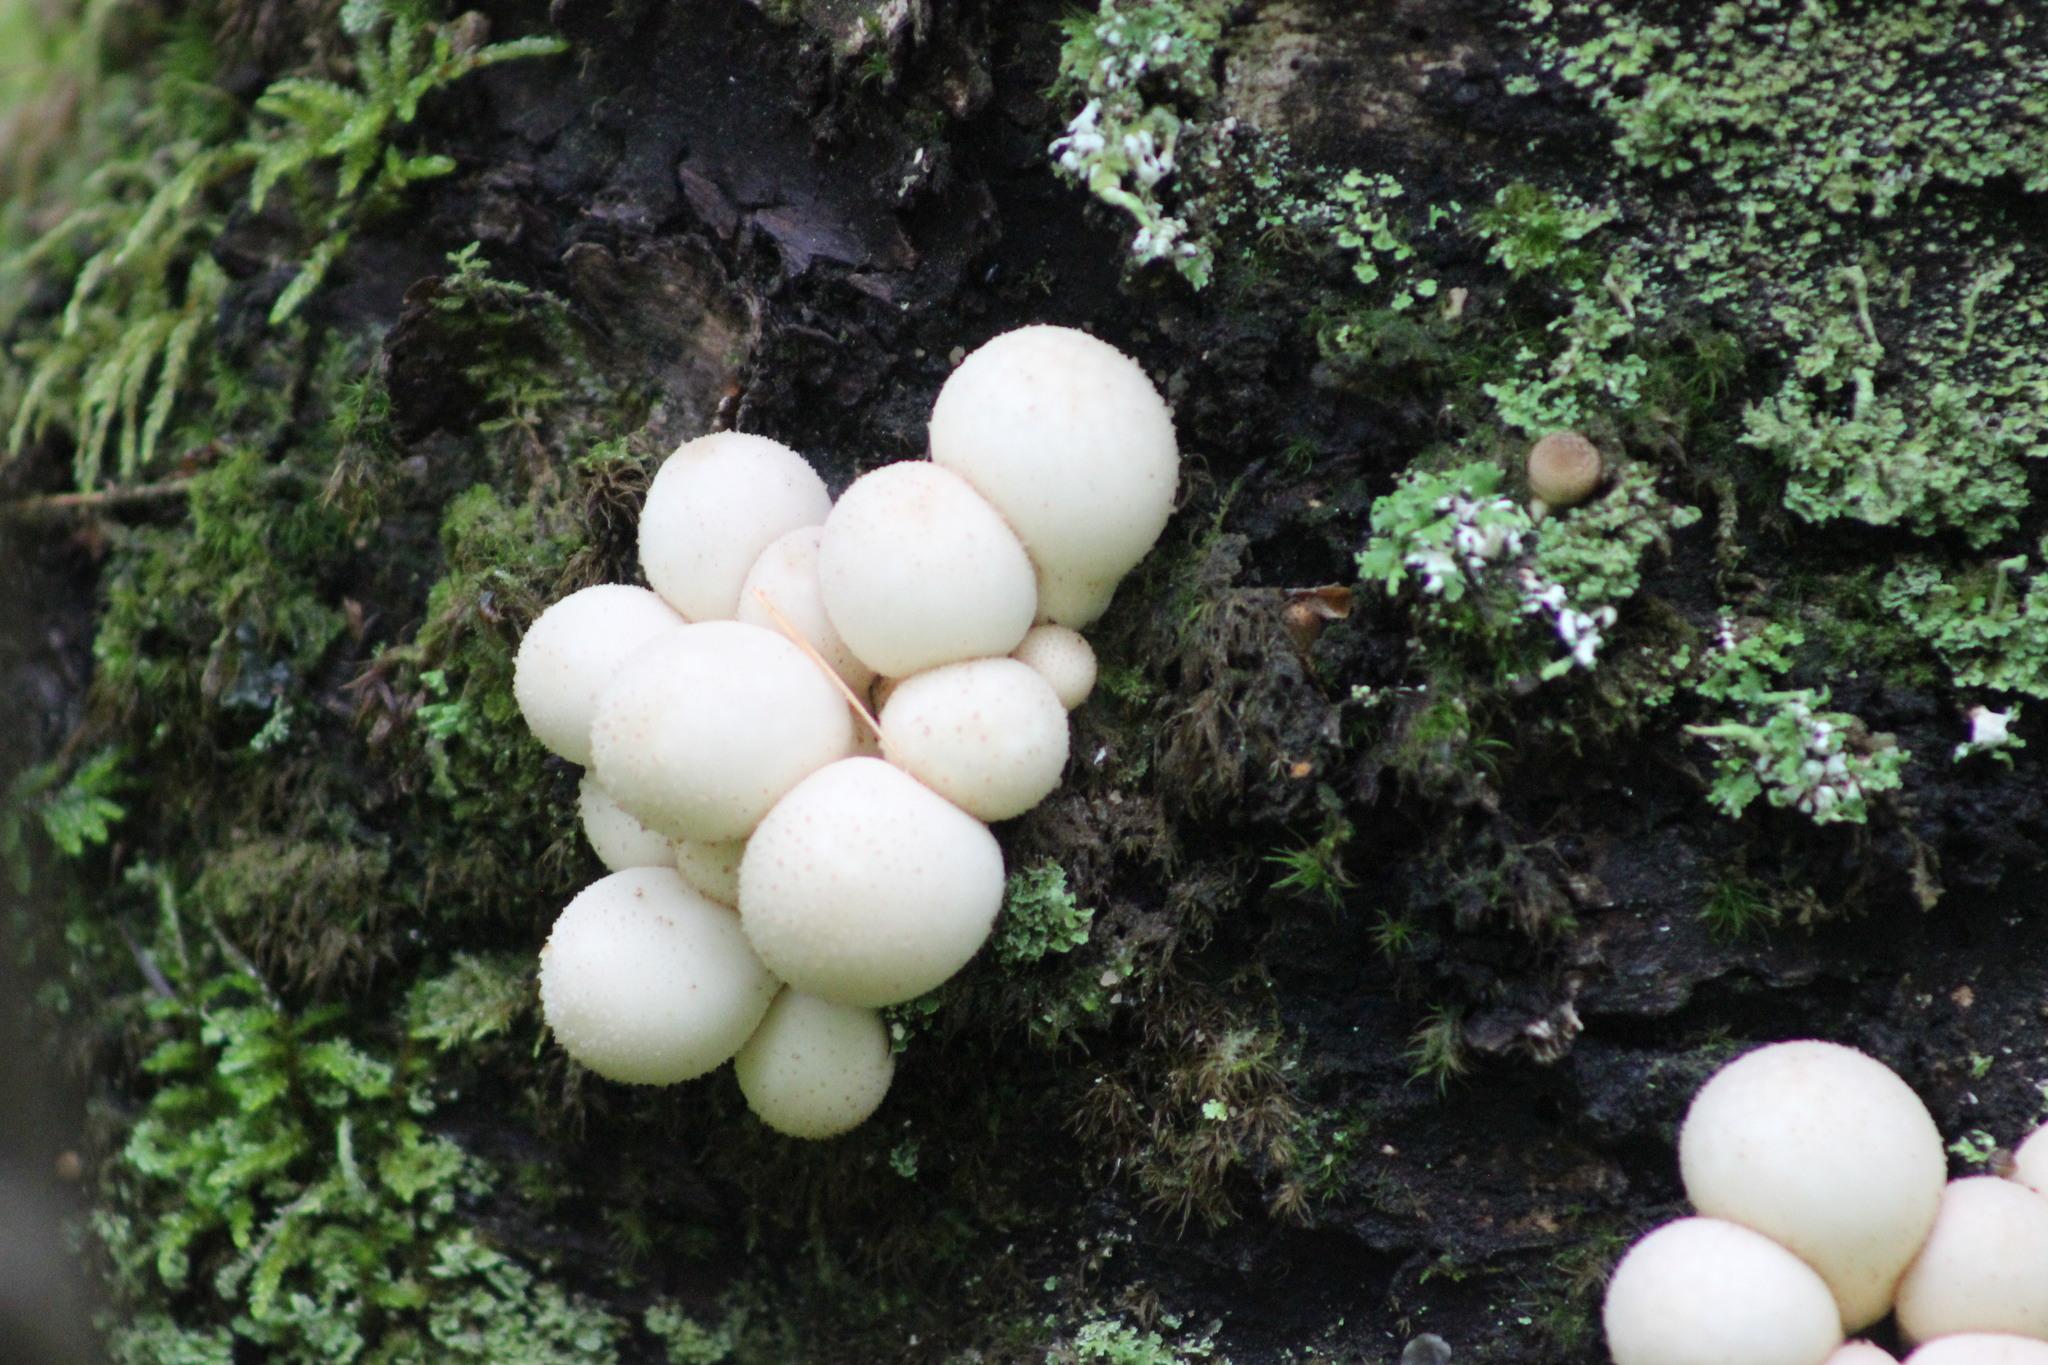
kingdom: Fungi
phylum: Basidiomycota
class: Agaricomycetes
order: Agaricales
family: Lycoperdaceae
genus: Apioperdon
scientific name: Apioperdon pyriforme
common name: Pear-shaped puffball
